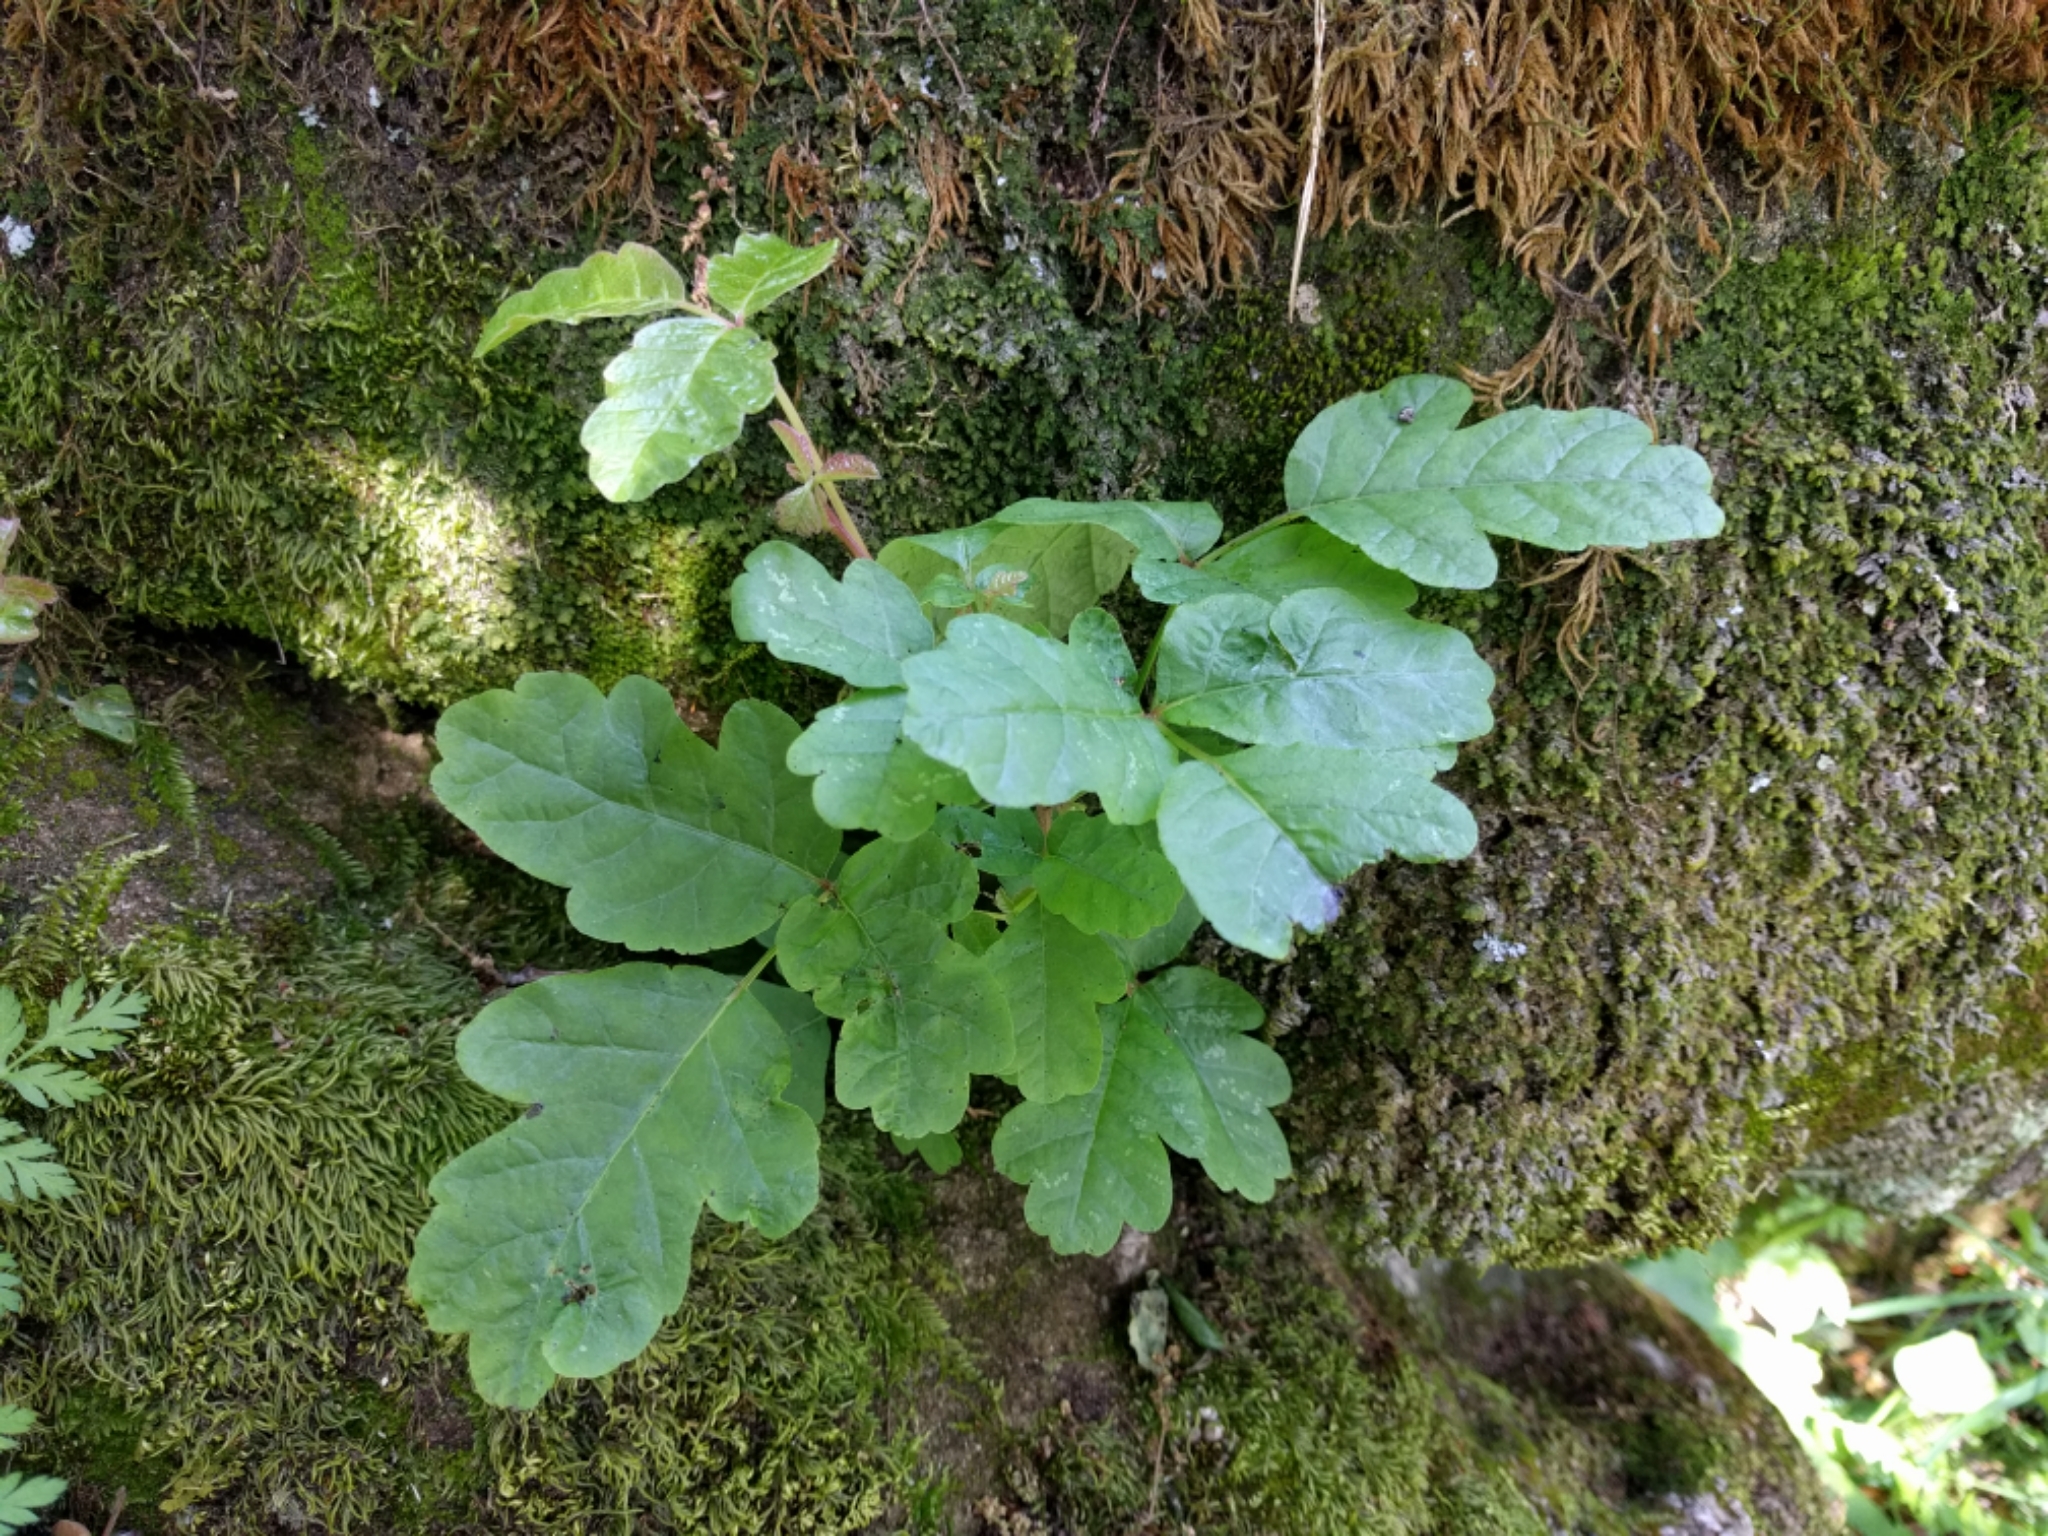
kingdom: Plantae
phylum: Tracheophyta
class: Magnoliopsida
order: Sapindales
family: Anacardiaceae
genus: Toxicodendron
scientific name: Toxicodendron diversilobum
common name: Pacific poison-oak
